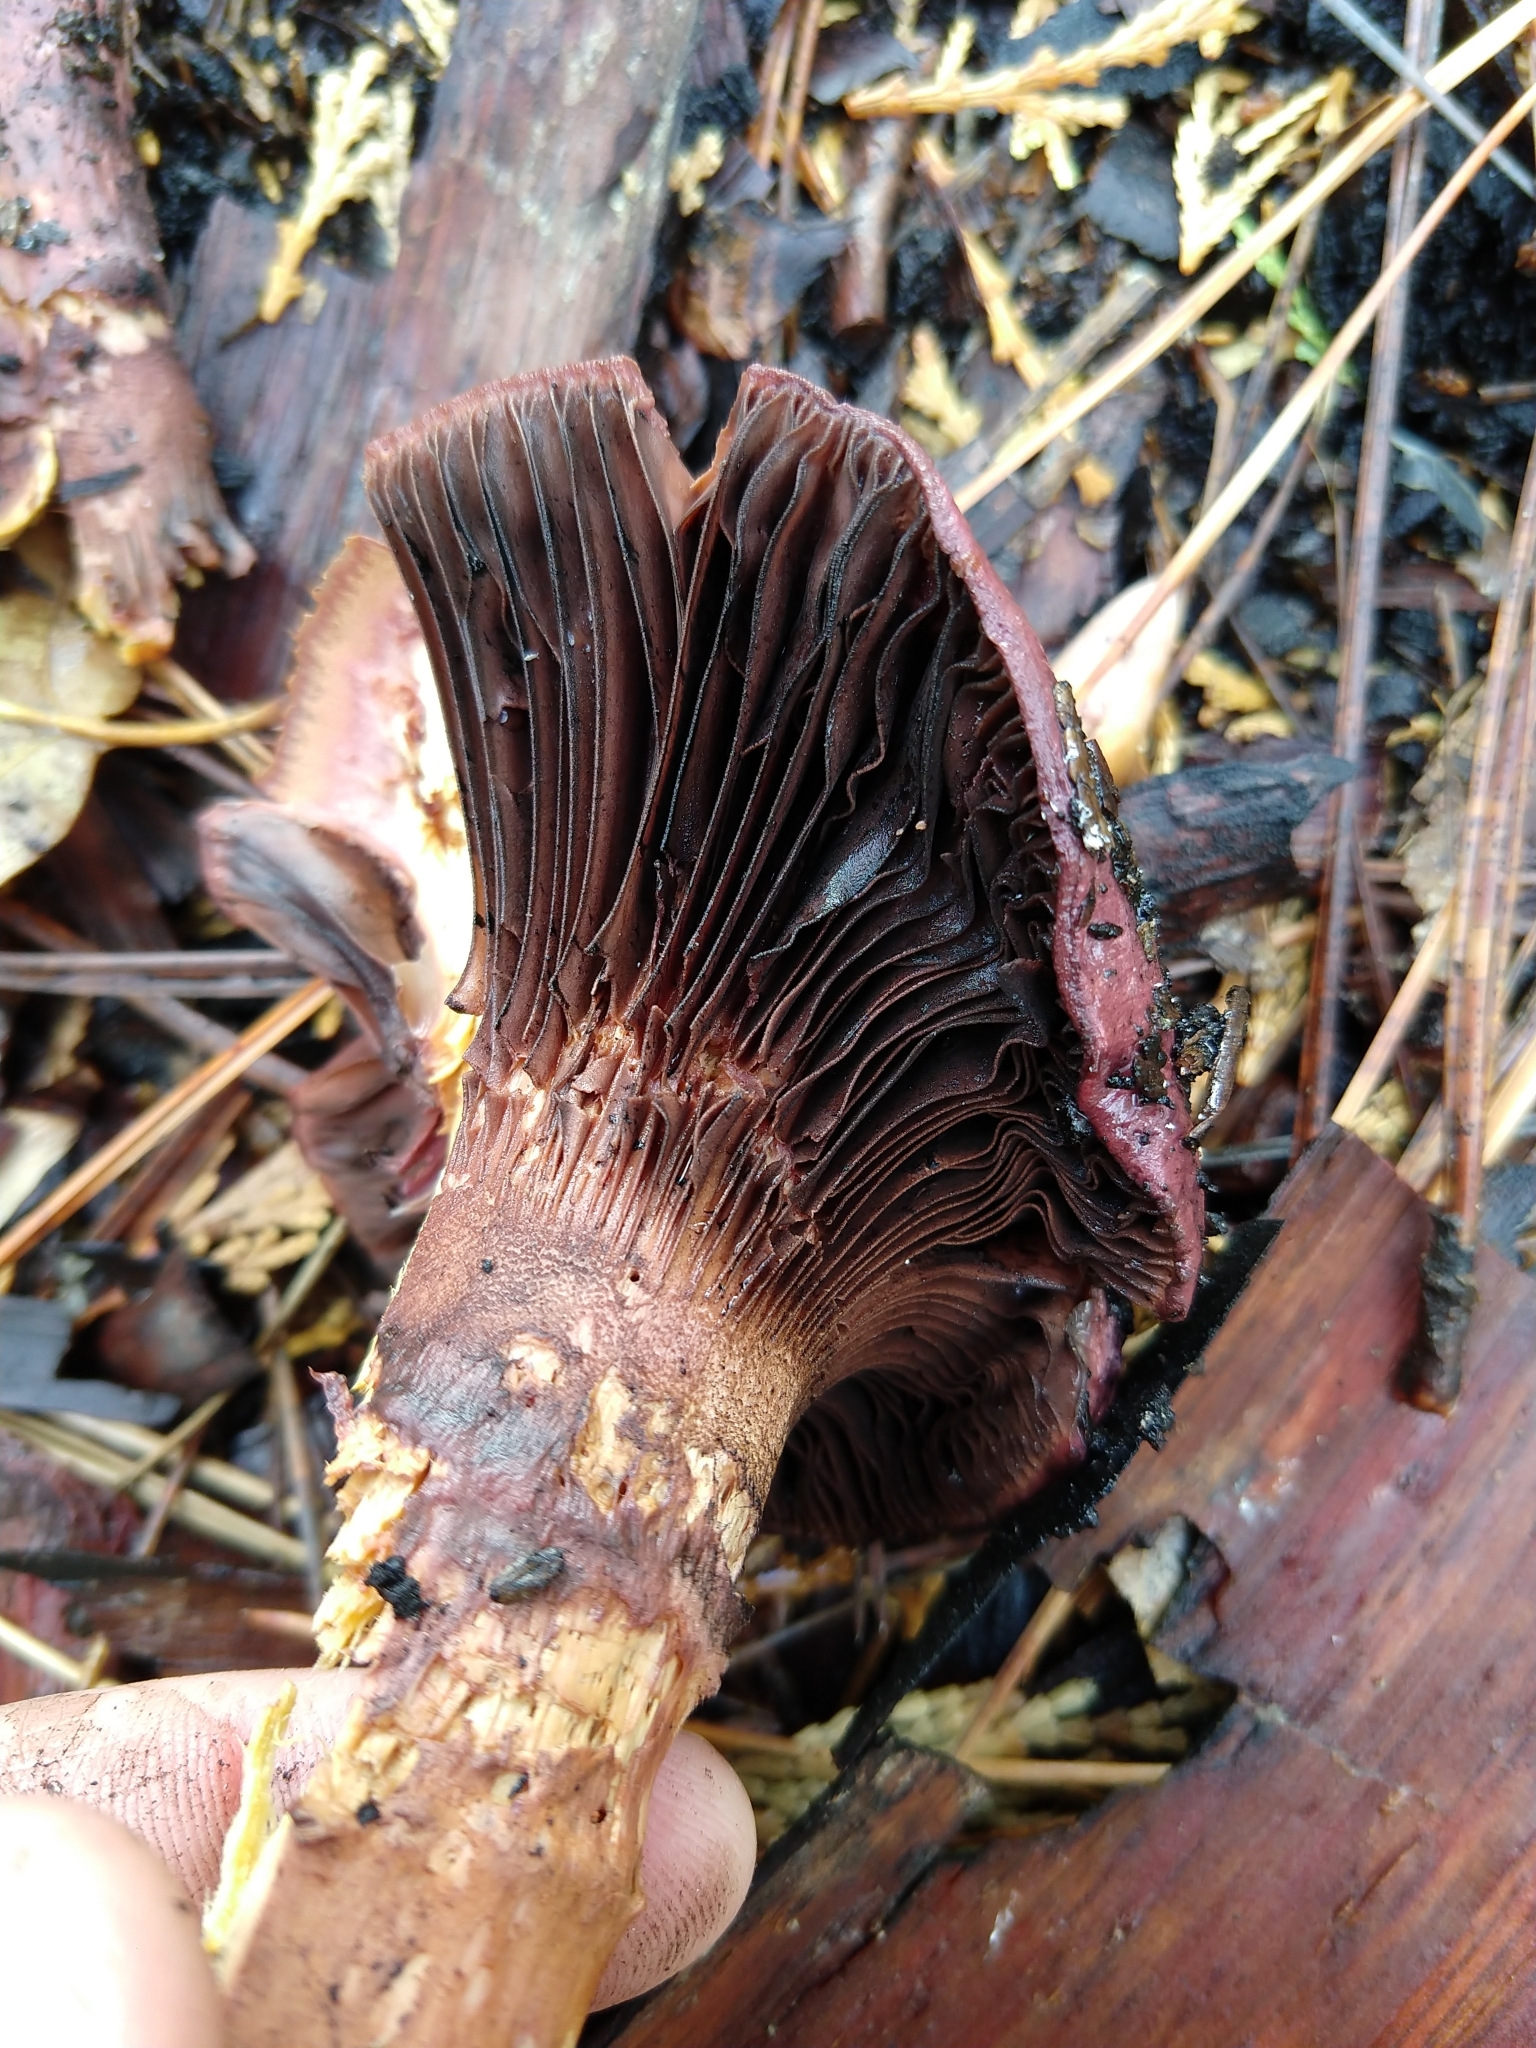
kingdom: Fungi
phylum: Basidiomycota
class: Agaricomycetes
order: Boletales
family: Gomphidiaceae
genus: Chroogomphus
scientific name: Chroogomphus vinicolor
